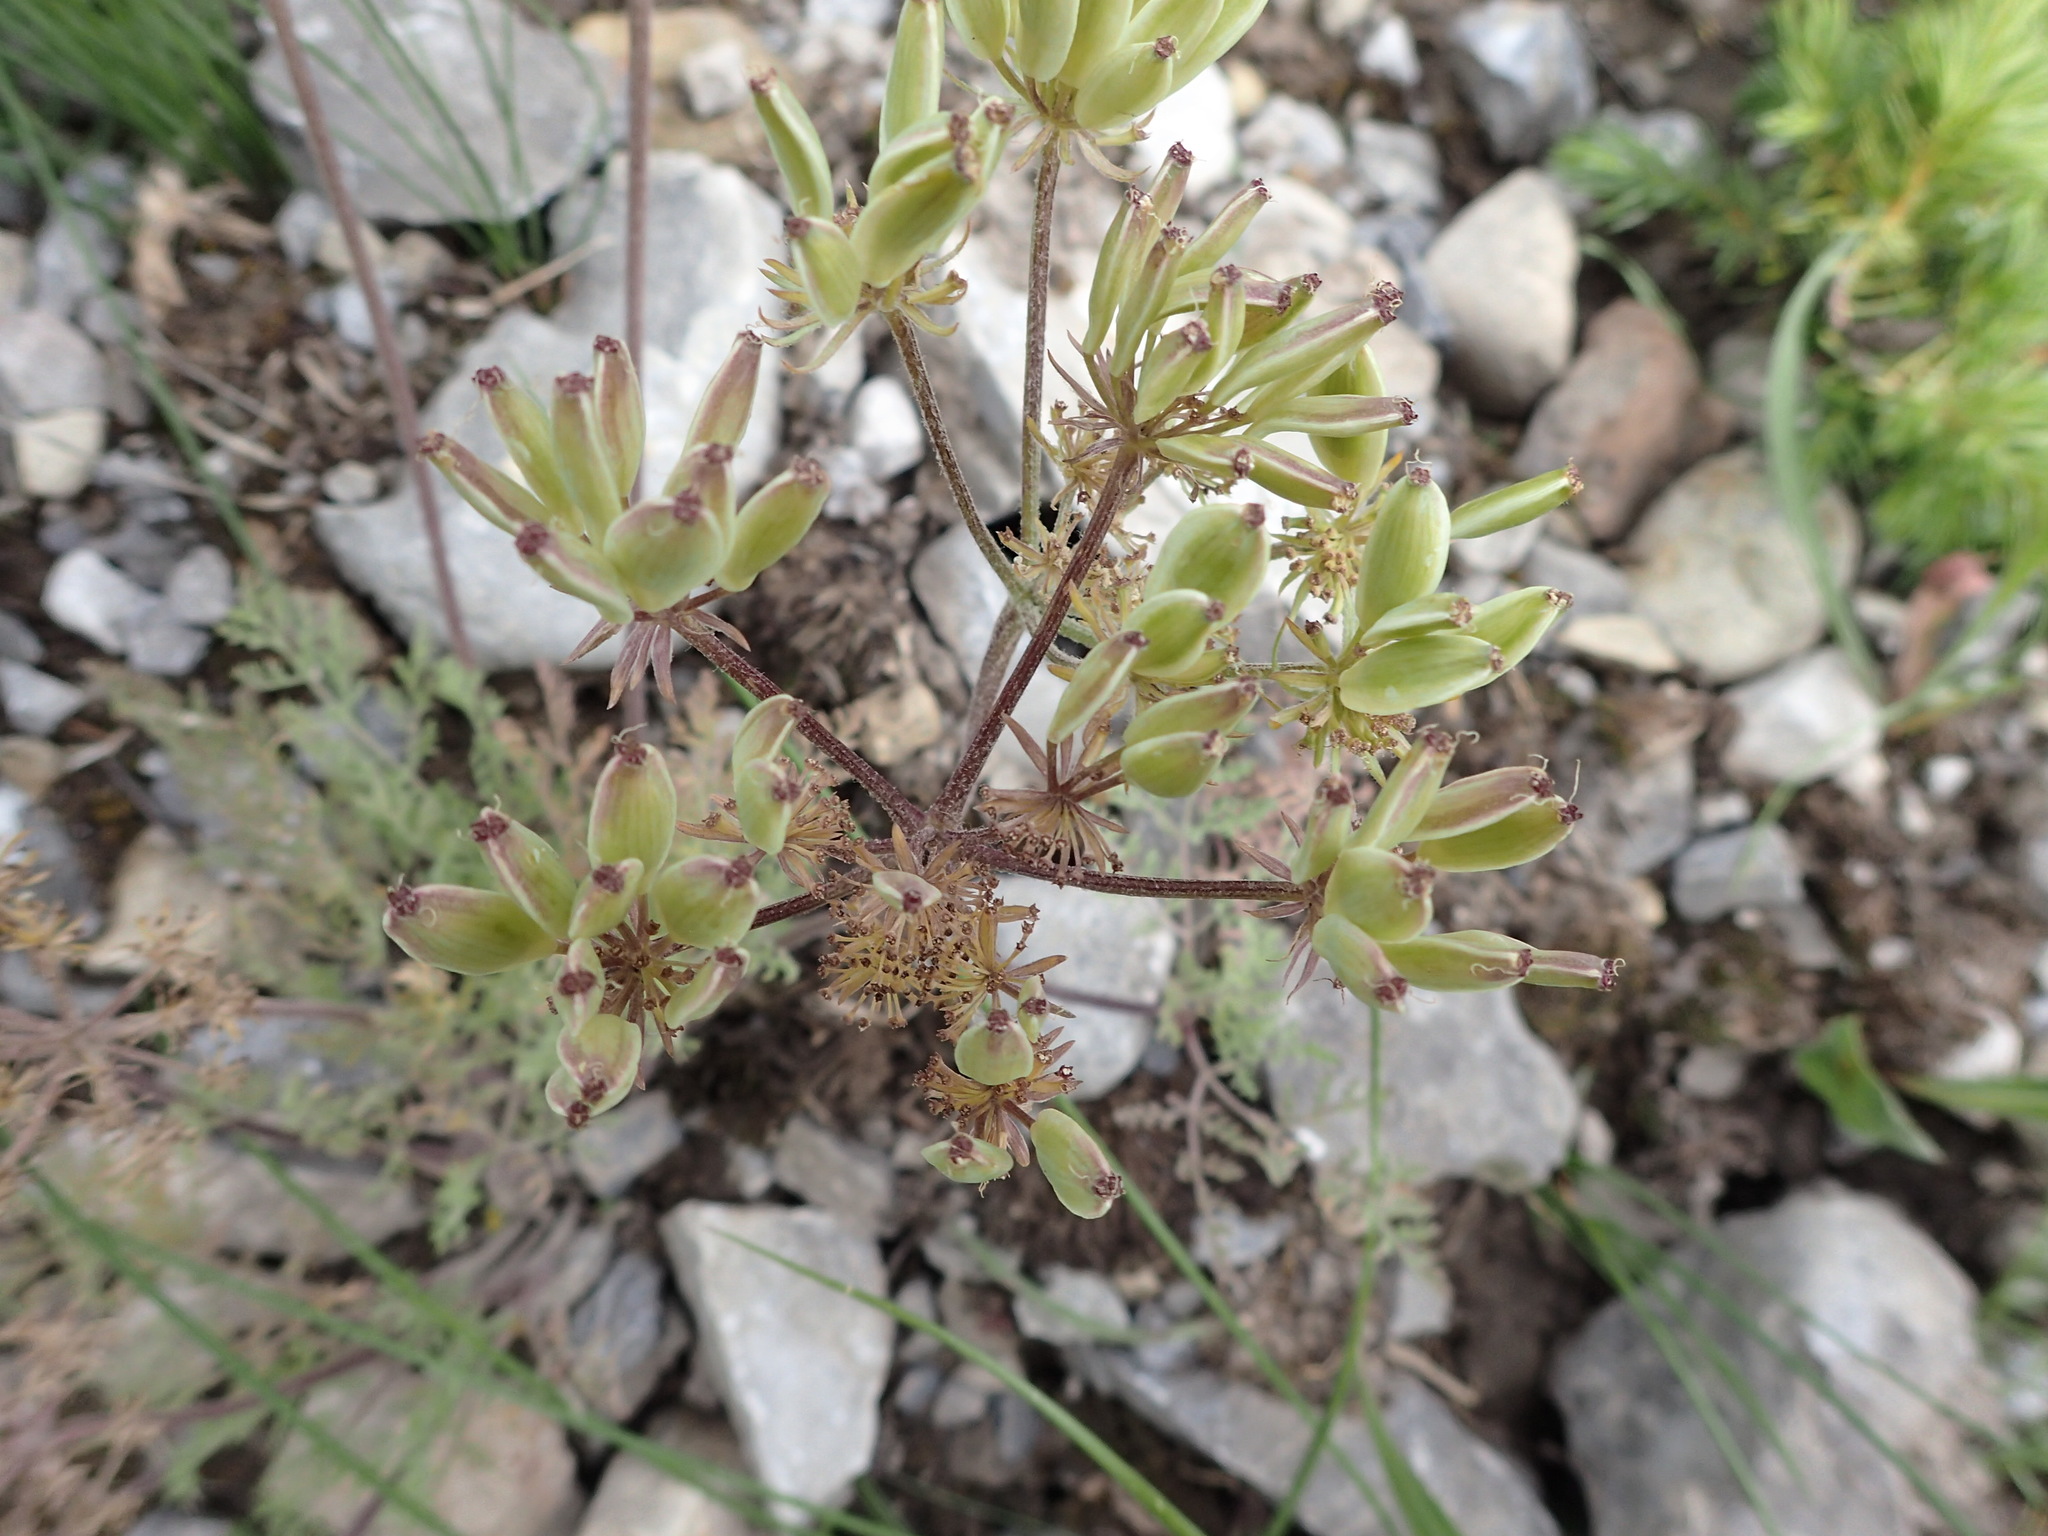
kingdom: Plantae
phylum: Tracheophyta
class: Magnoliopsida
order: Apiales
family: Apiaceae
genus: Lomatium
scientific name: Lomatium macrocarpum
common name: Big-seed biscuitroot
